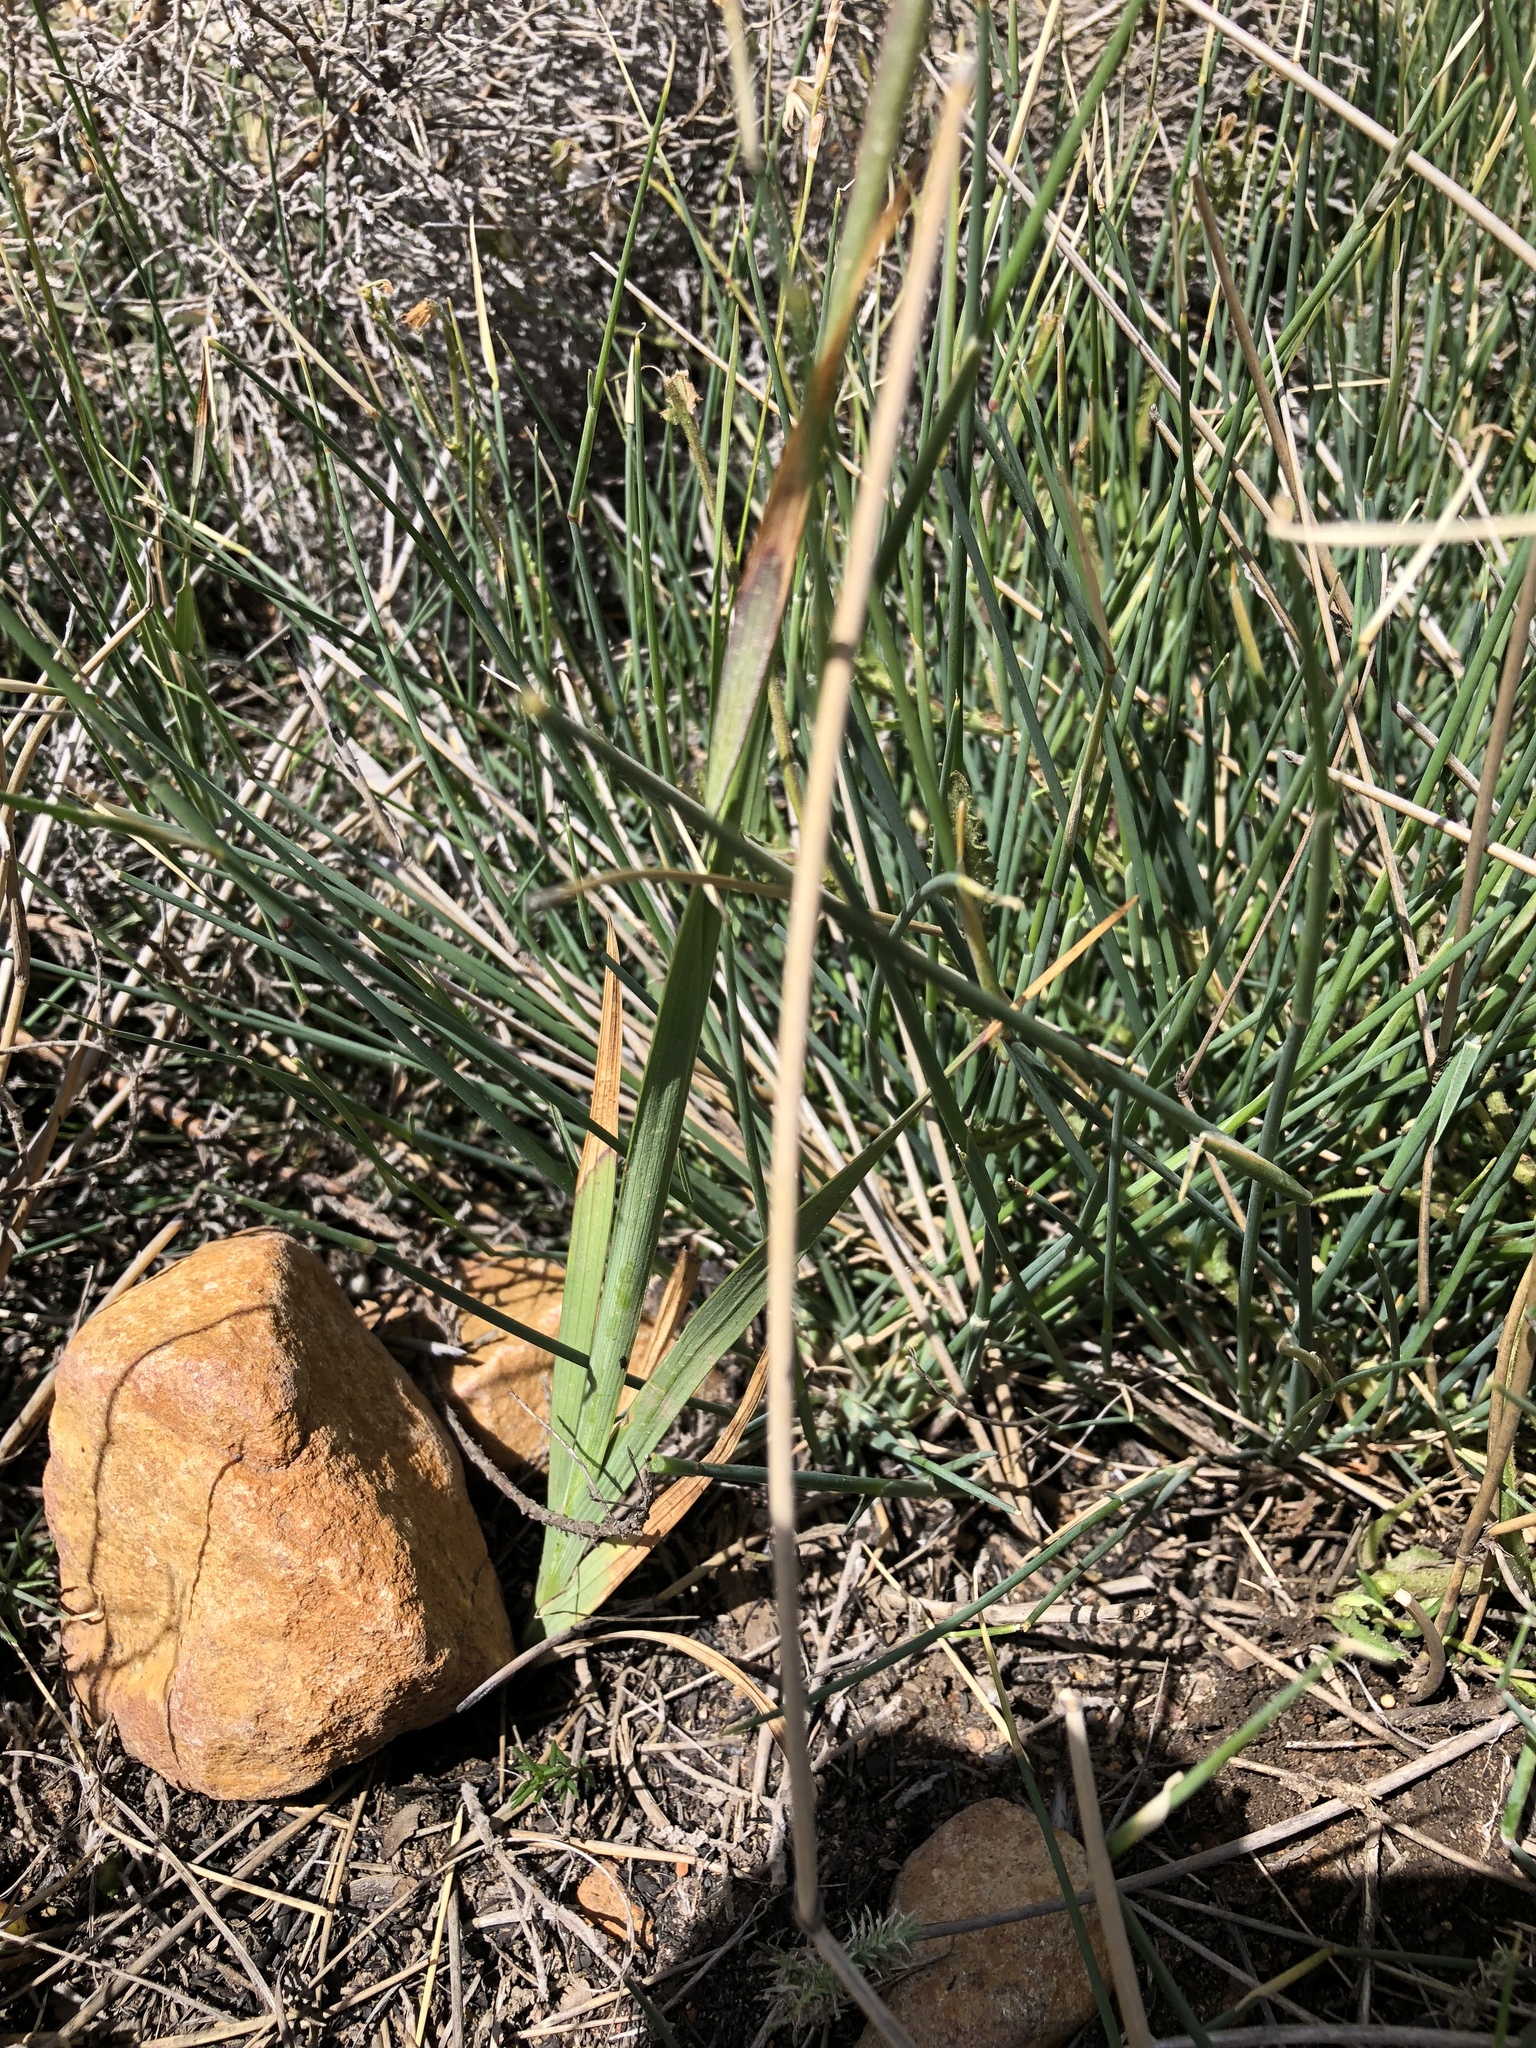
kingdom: Plantae
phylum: Tracheophyta
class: Liliopsida
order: Asparagales
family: Iridaceae
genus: Ixia
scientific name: Ixia orientalis
